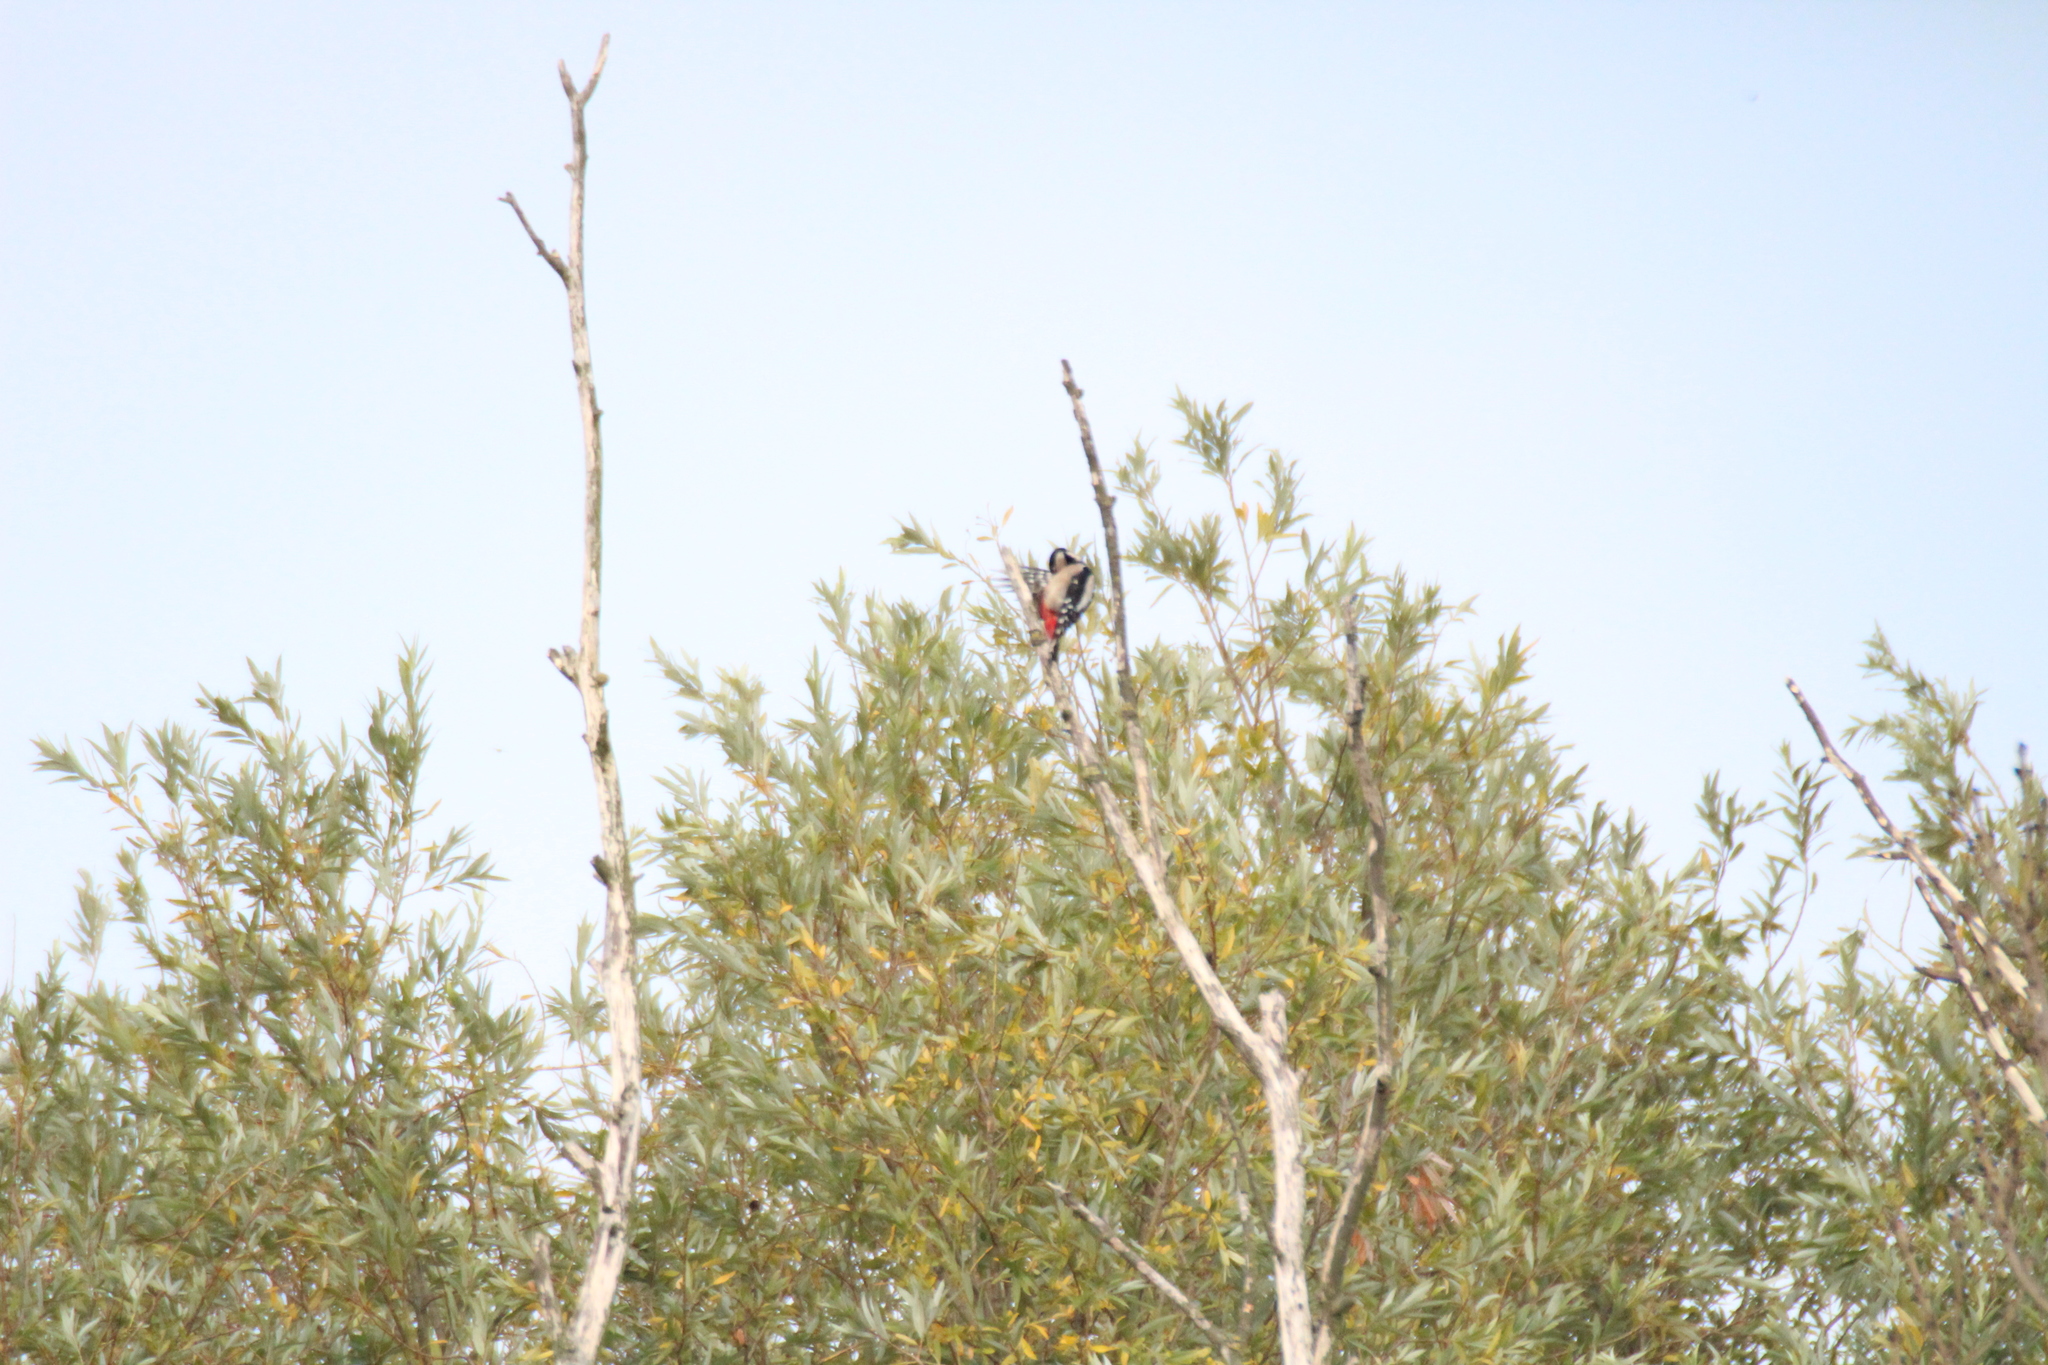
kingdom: Animalia
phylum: Chordata
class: Aves
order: Piciformes
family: Picidae
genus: Dendrocopos
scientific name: Dendrocopos major
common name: Great spotted woodpecker
